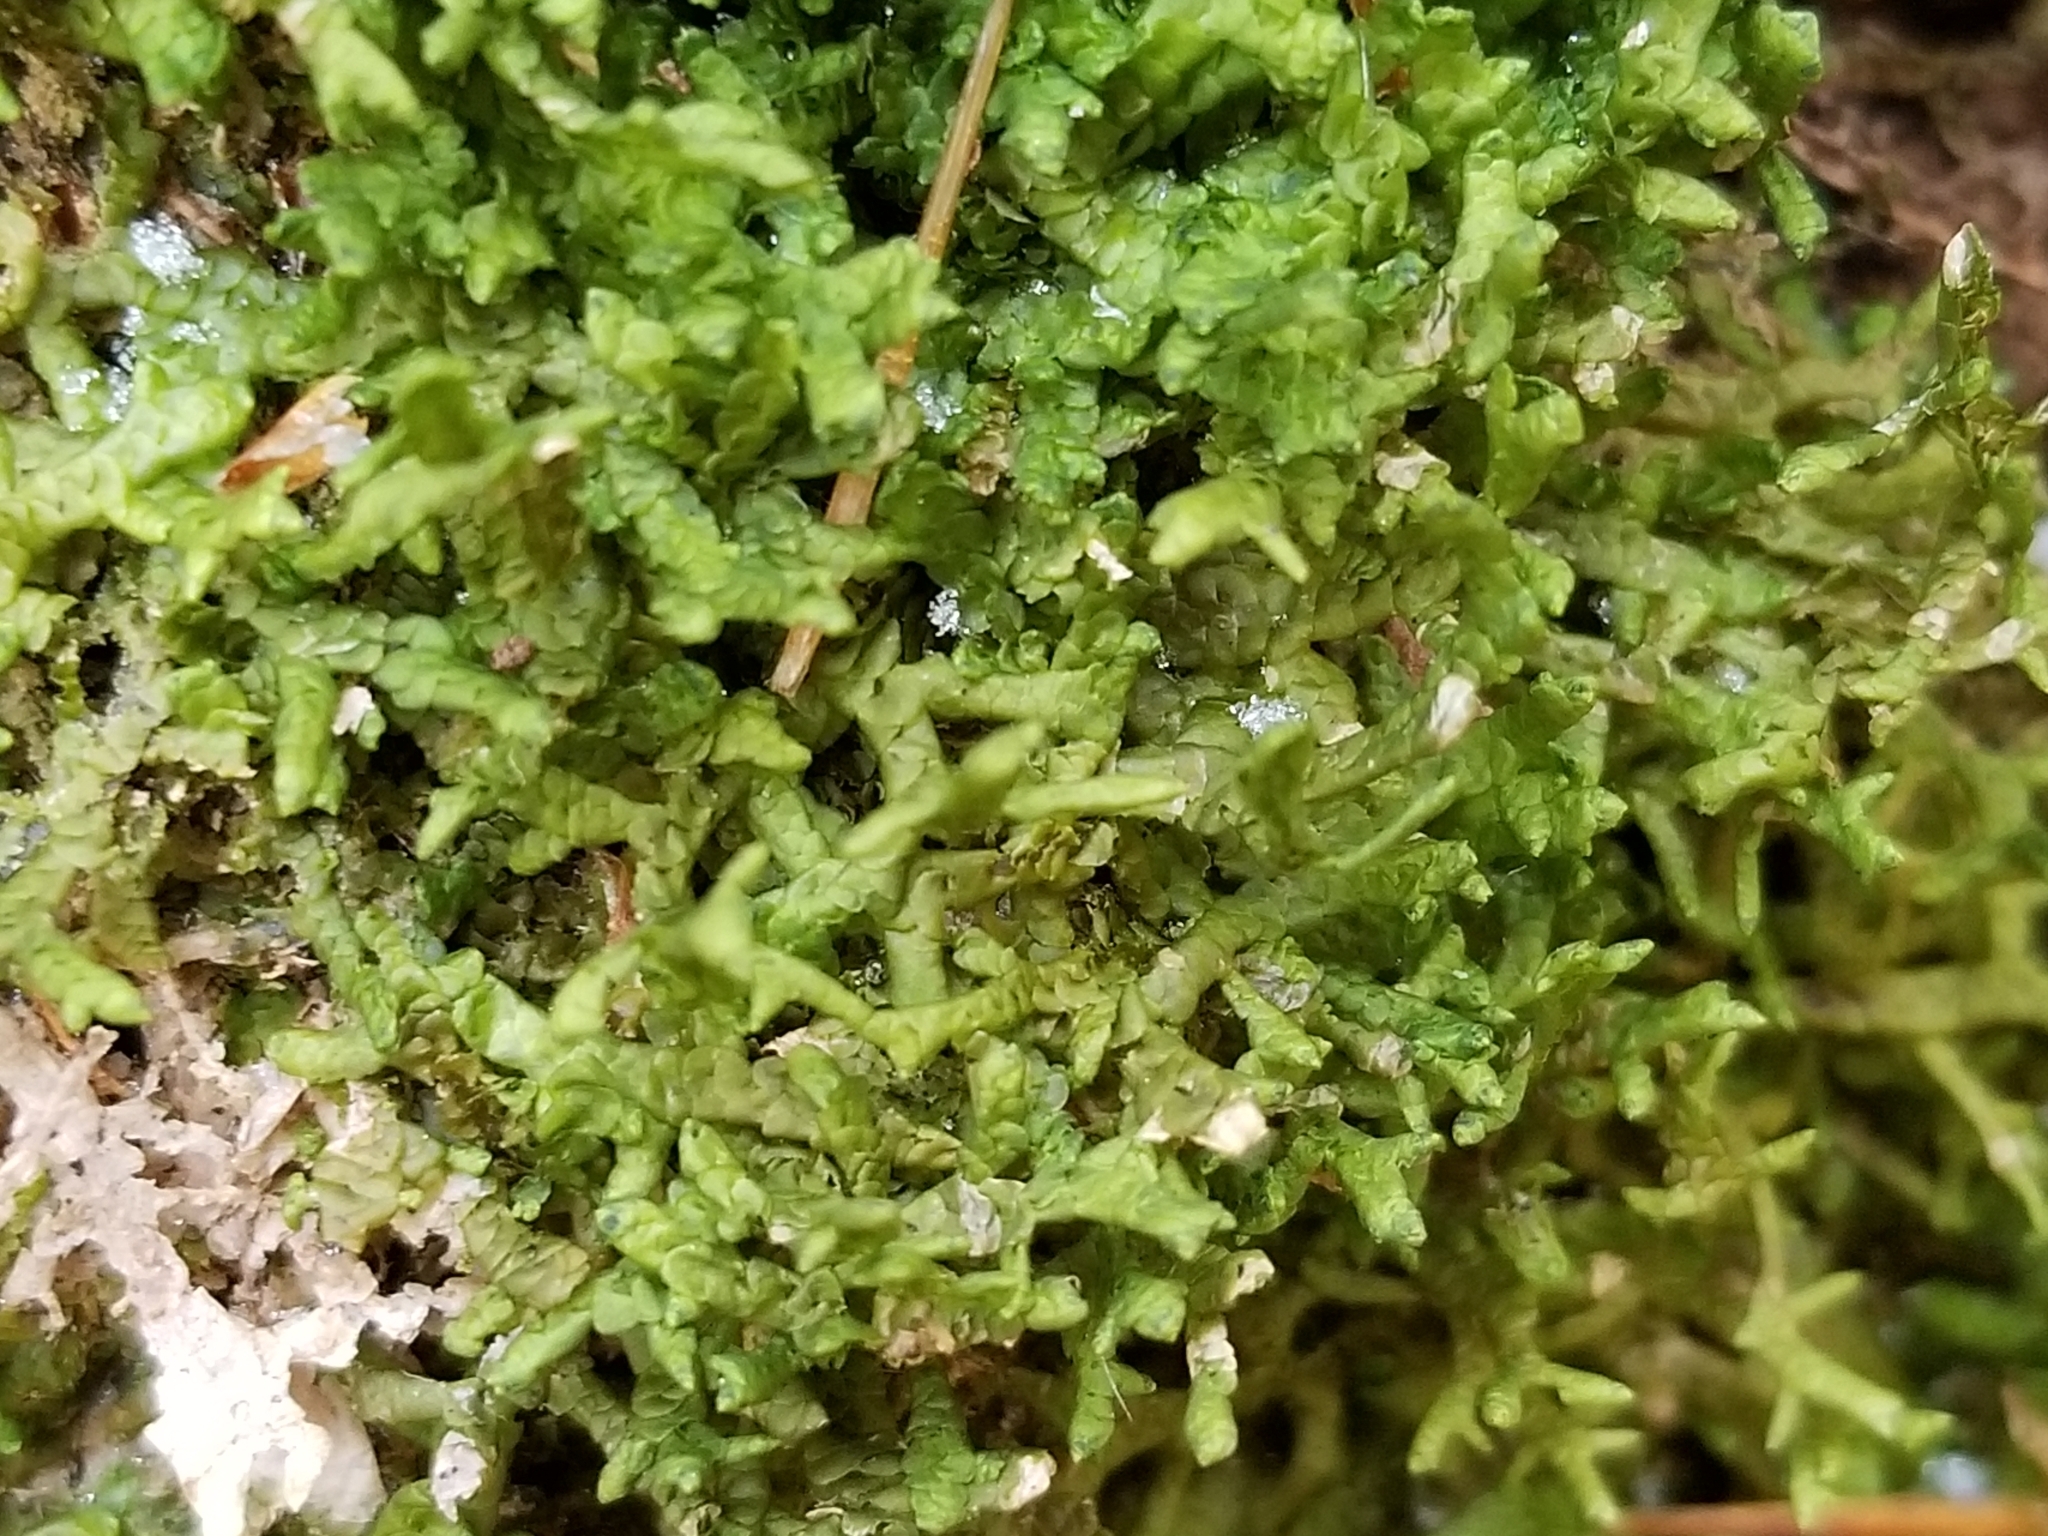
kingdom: Plantae
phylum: Marchantiophyta
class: Jungermanniopsida
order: Porellales
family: Porellaceae
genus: Porella
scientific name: Porella platyphylla
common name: Wall scalewort
